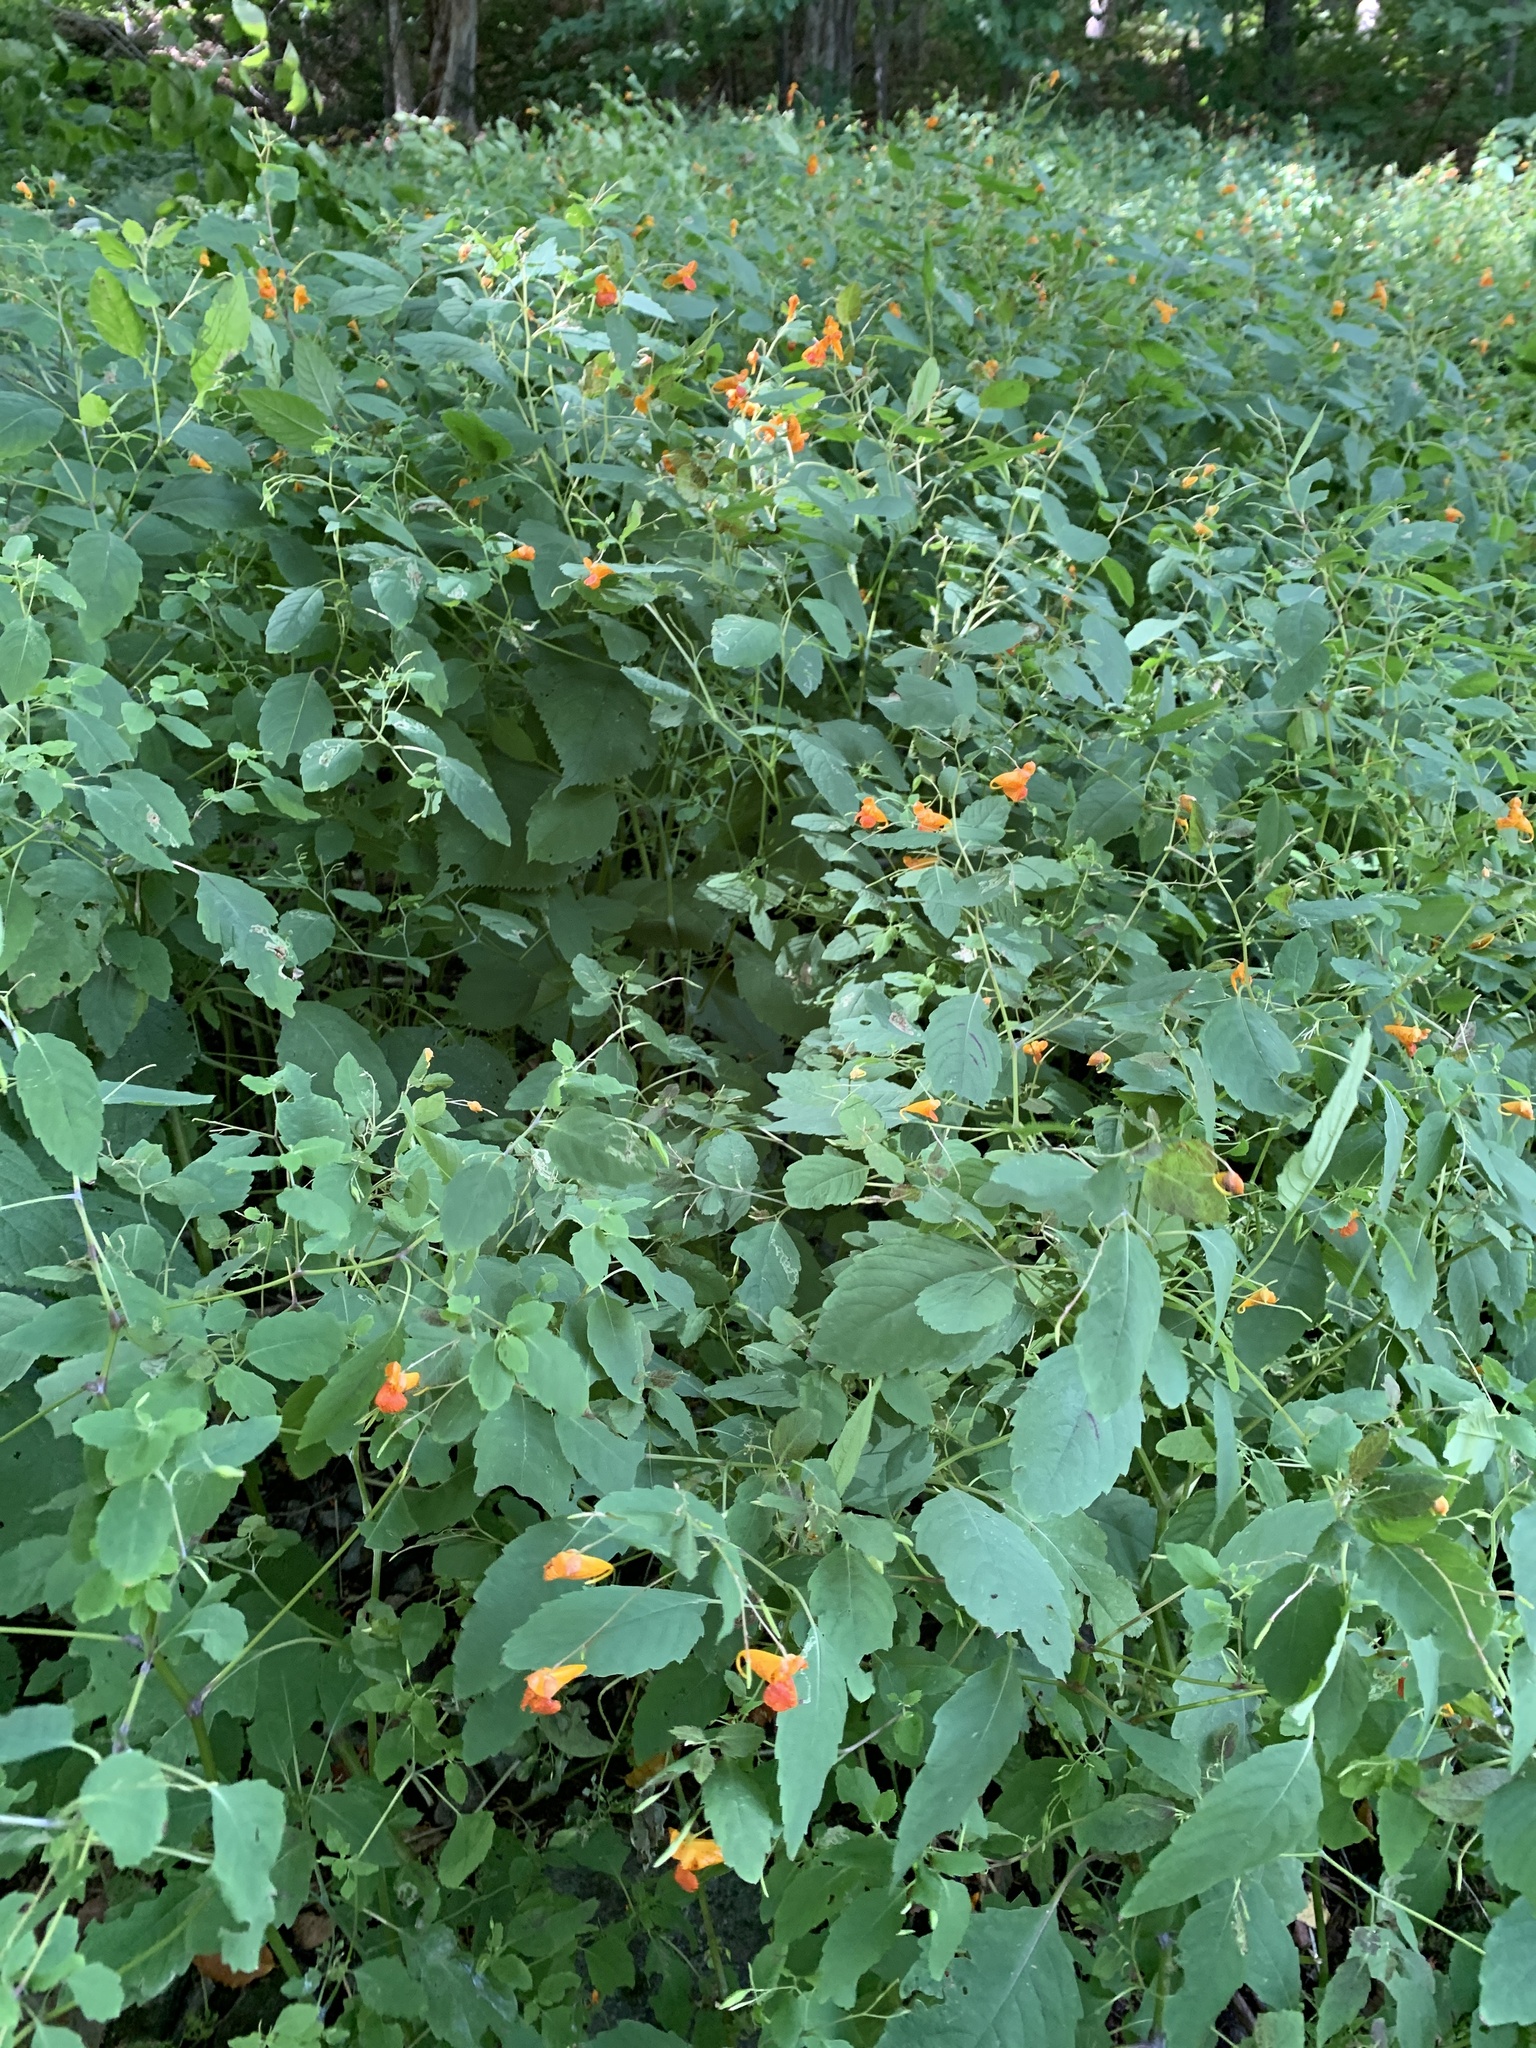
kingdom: Plantae
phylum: Tracheophyta
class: Magnoliopsida
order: Ericales
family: Balsaminaceae
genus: Impatiens
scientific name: Impatiens capensis
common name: Orange balsam
